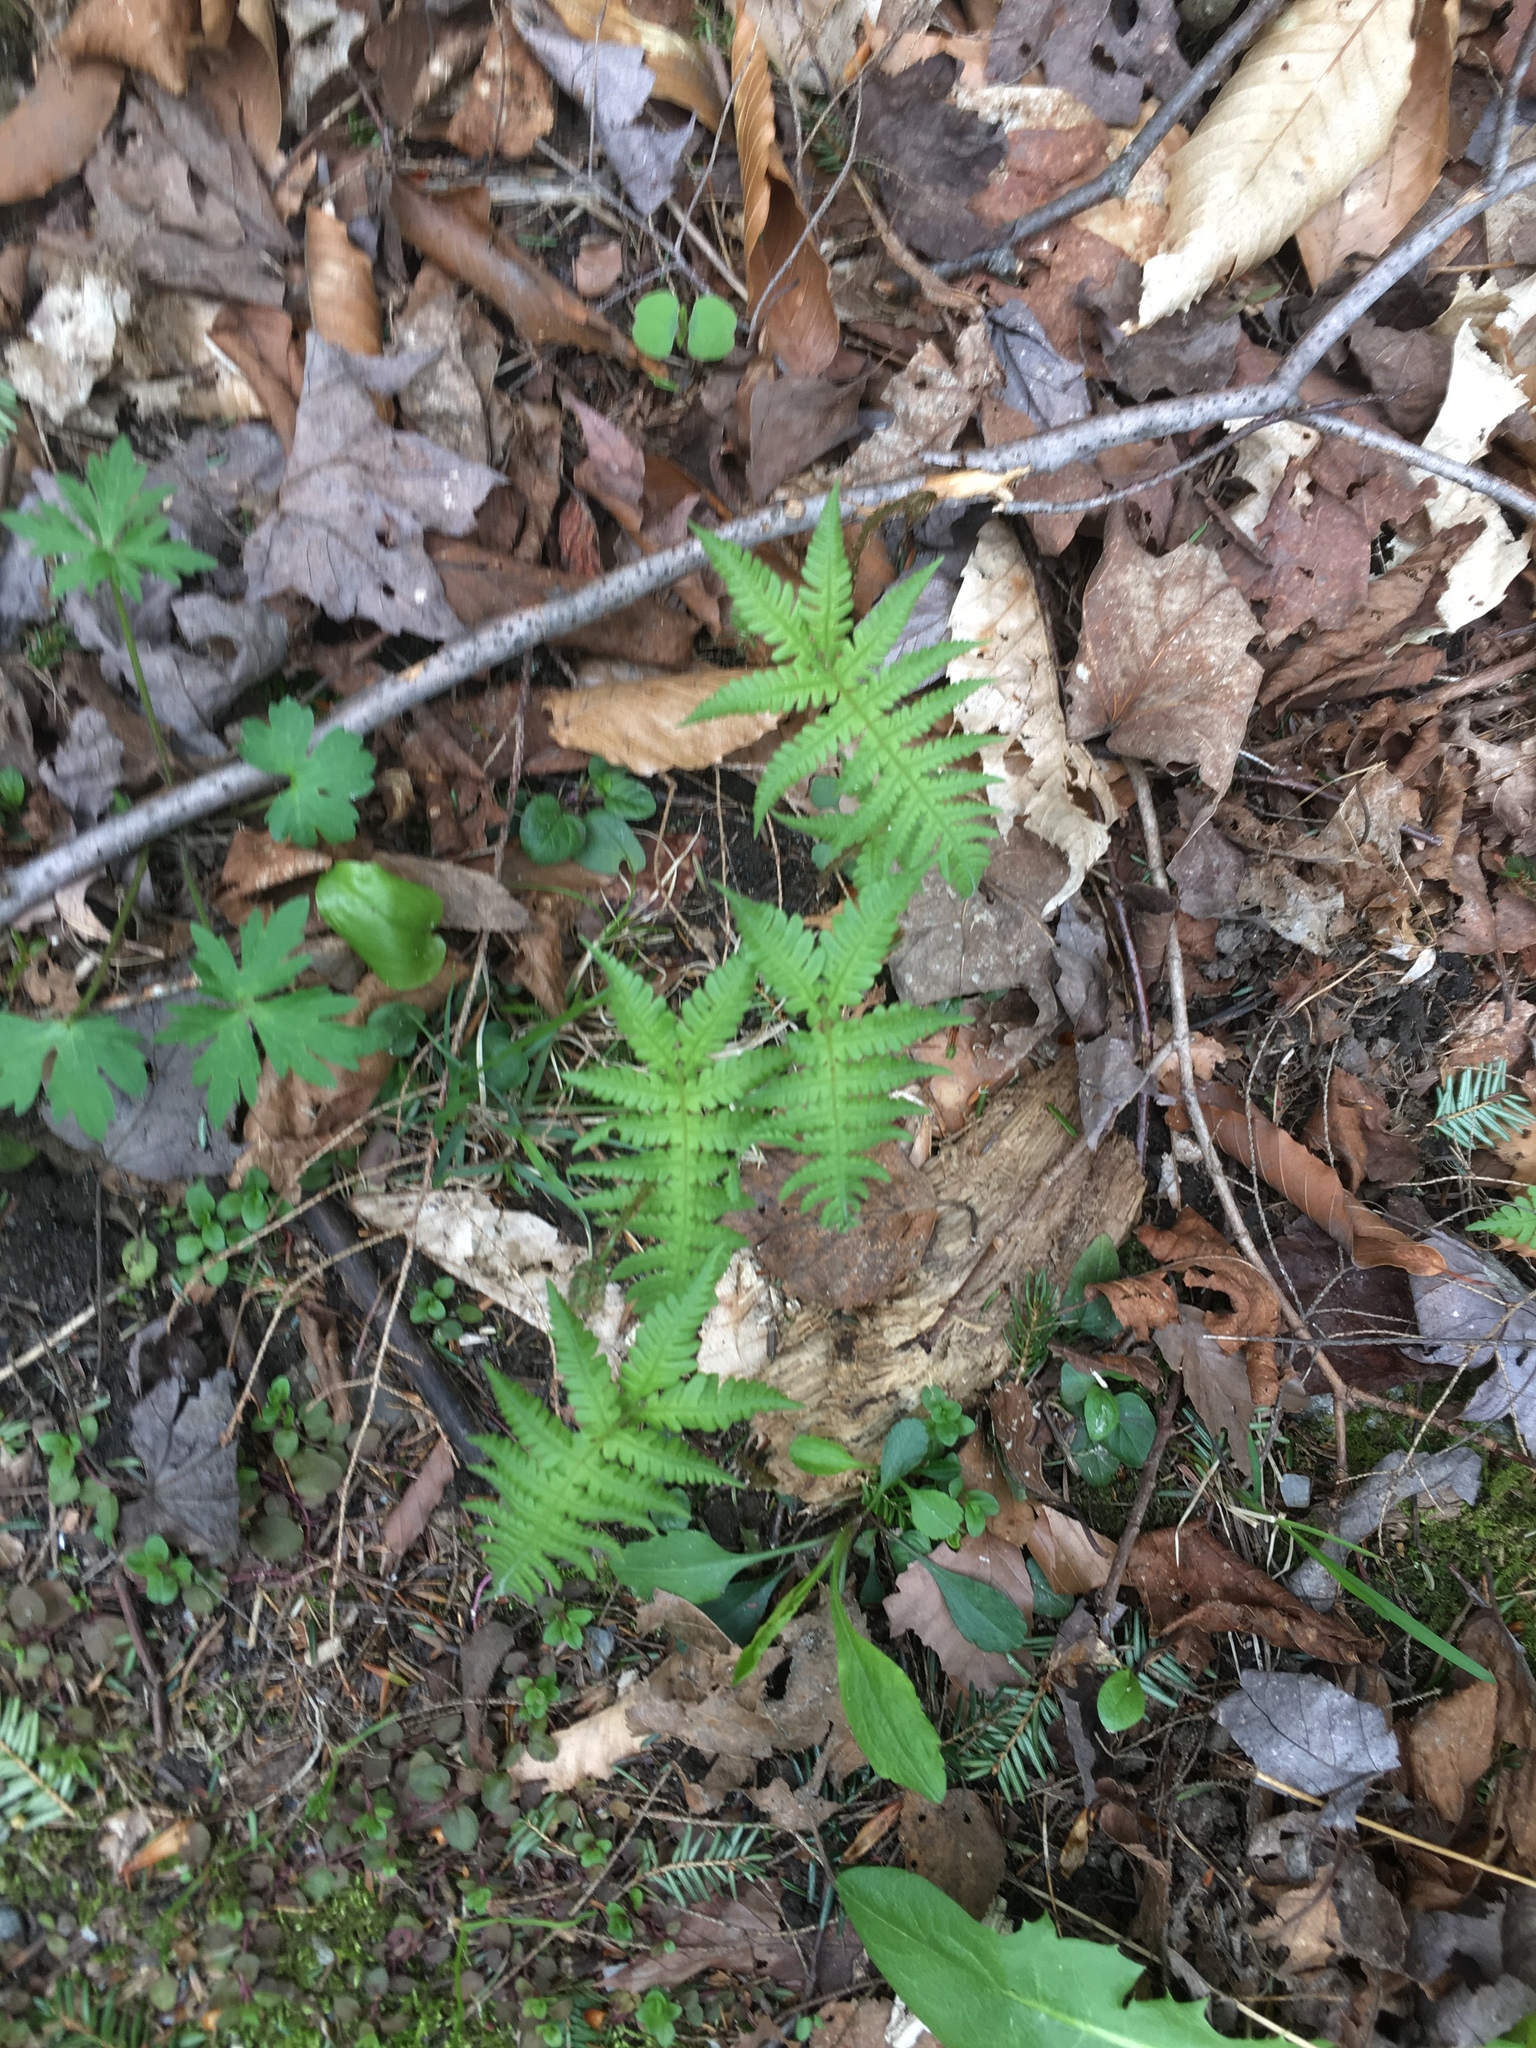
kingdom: Plantae
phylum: Tracheophyta
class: Polypodiopsida
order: Polypodiales
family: Thelypteridaceae
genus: Phegopteris
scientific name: Phegopteris connectilis
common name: Beech fern
